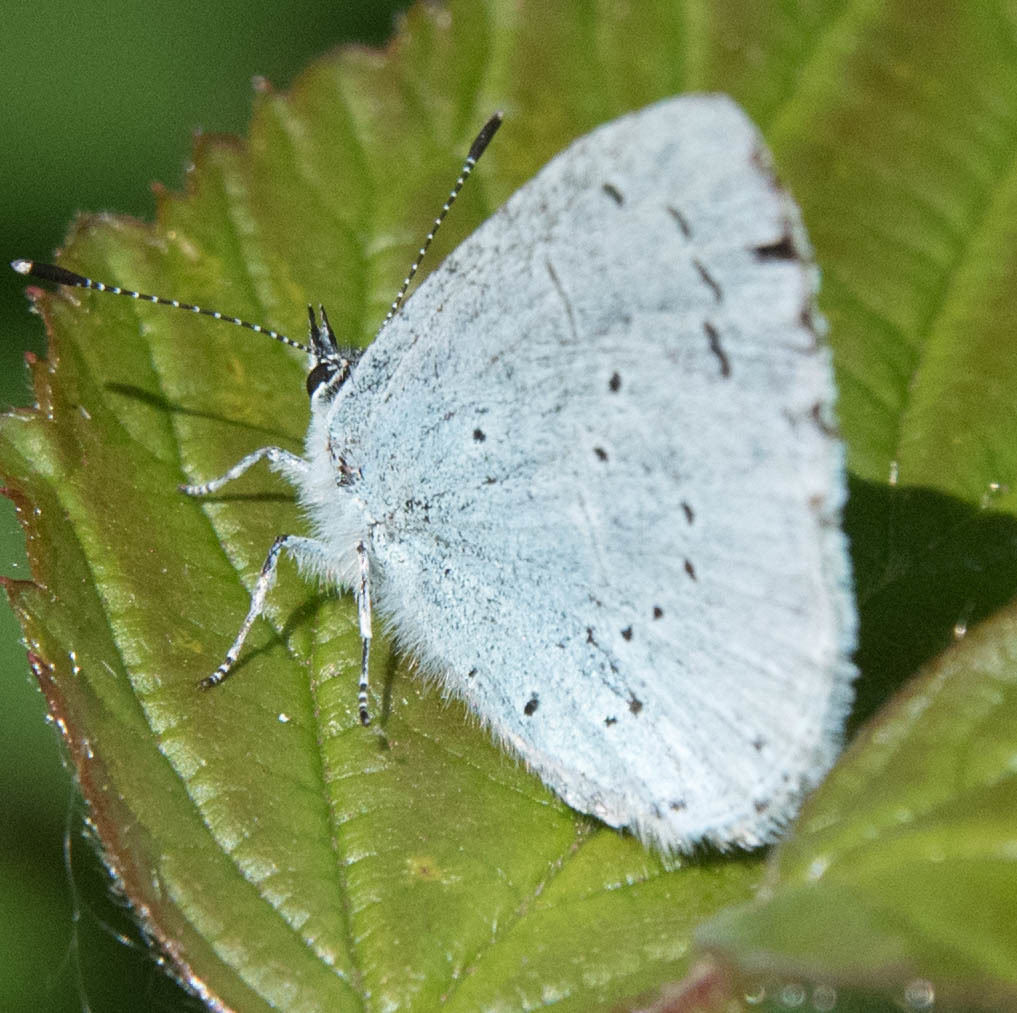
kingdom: Animalia
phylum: Arthropoda
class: Insecta
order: Lepidoptera
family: Lycaenidae
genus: Celastrina
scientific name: Celastrina argiolus
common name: Holly blue
